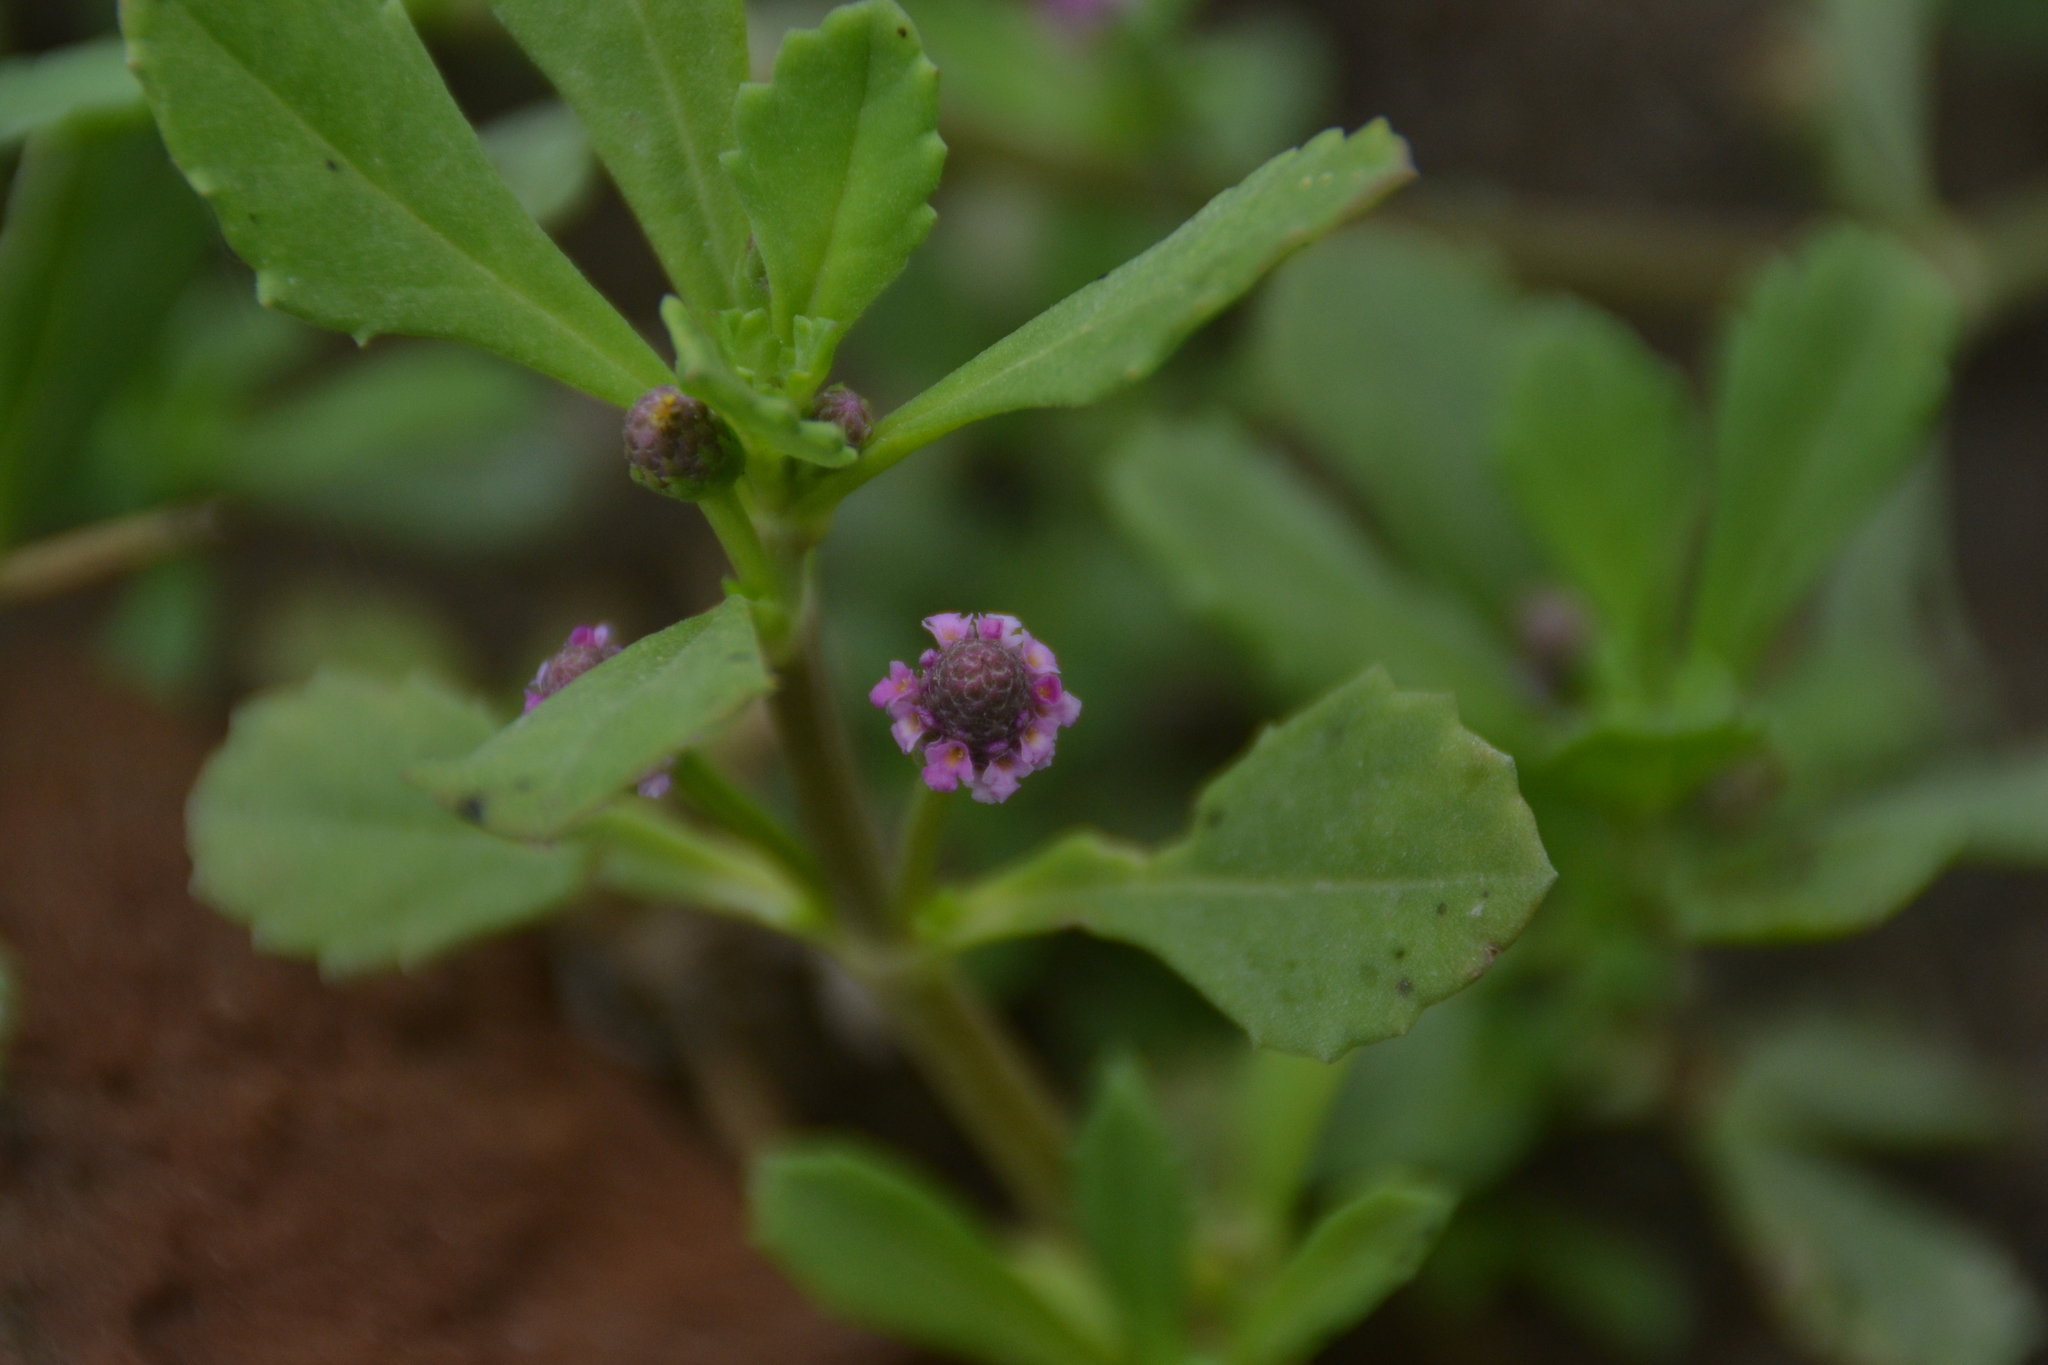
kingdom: Plantae
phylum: Tracheophyta
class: Magnoliopsida
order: Lamiales
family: Verbenaceae
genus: Phyla
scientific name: Phyla nodiflora
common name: Frogfruit
